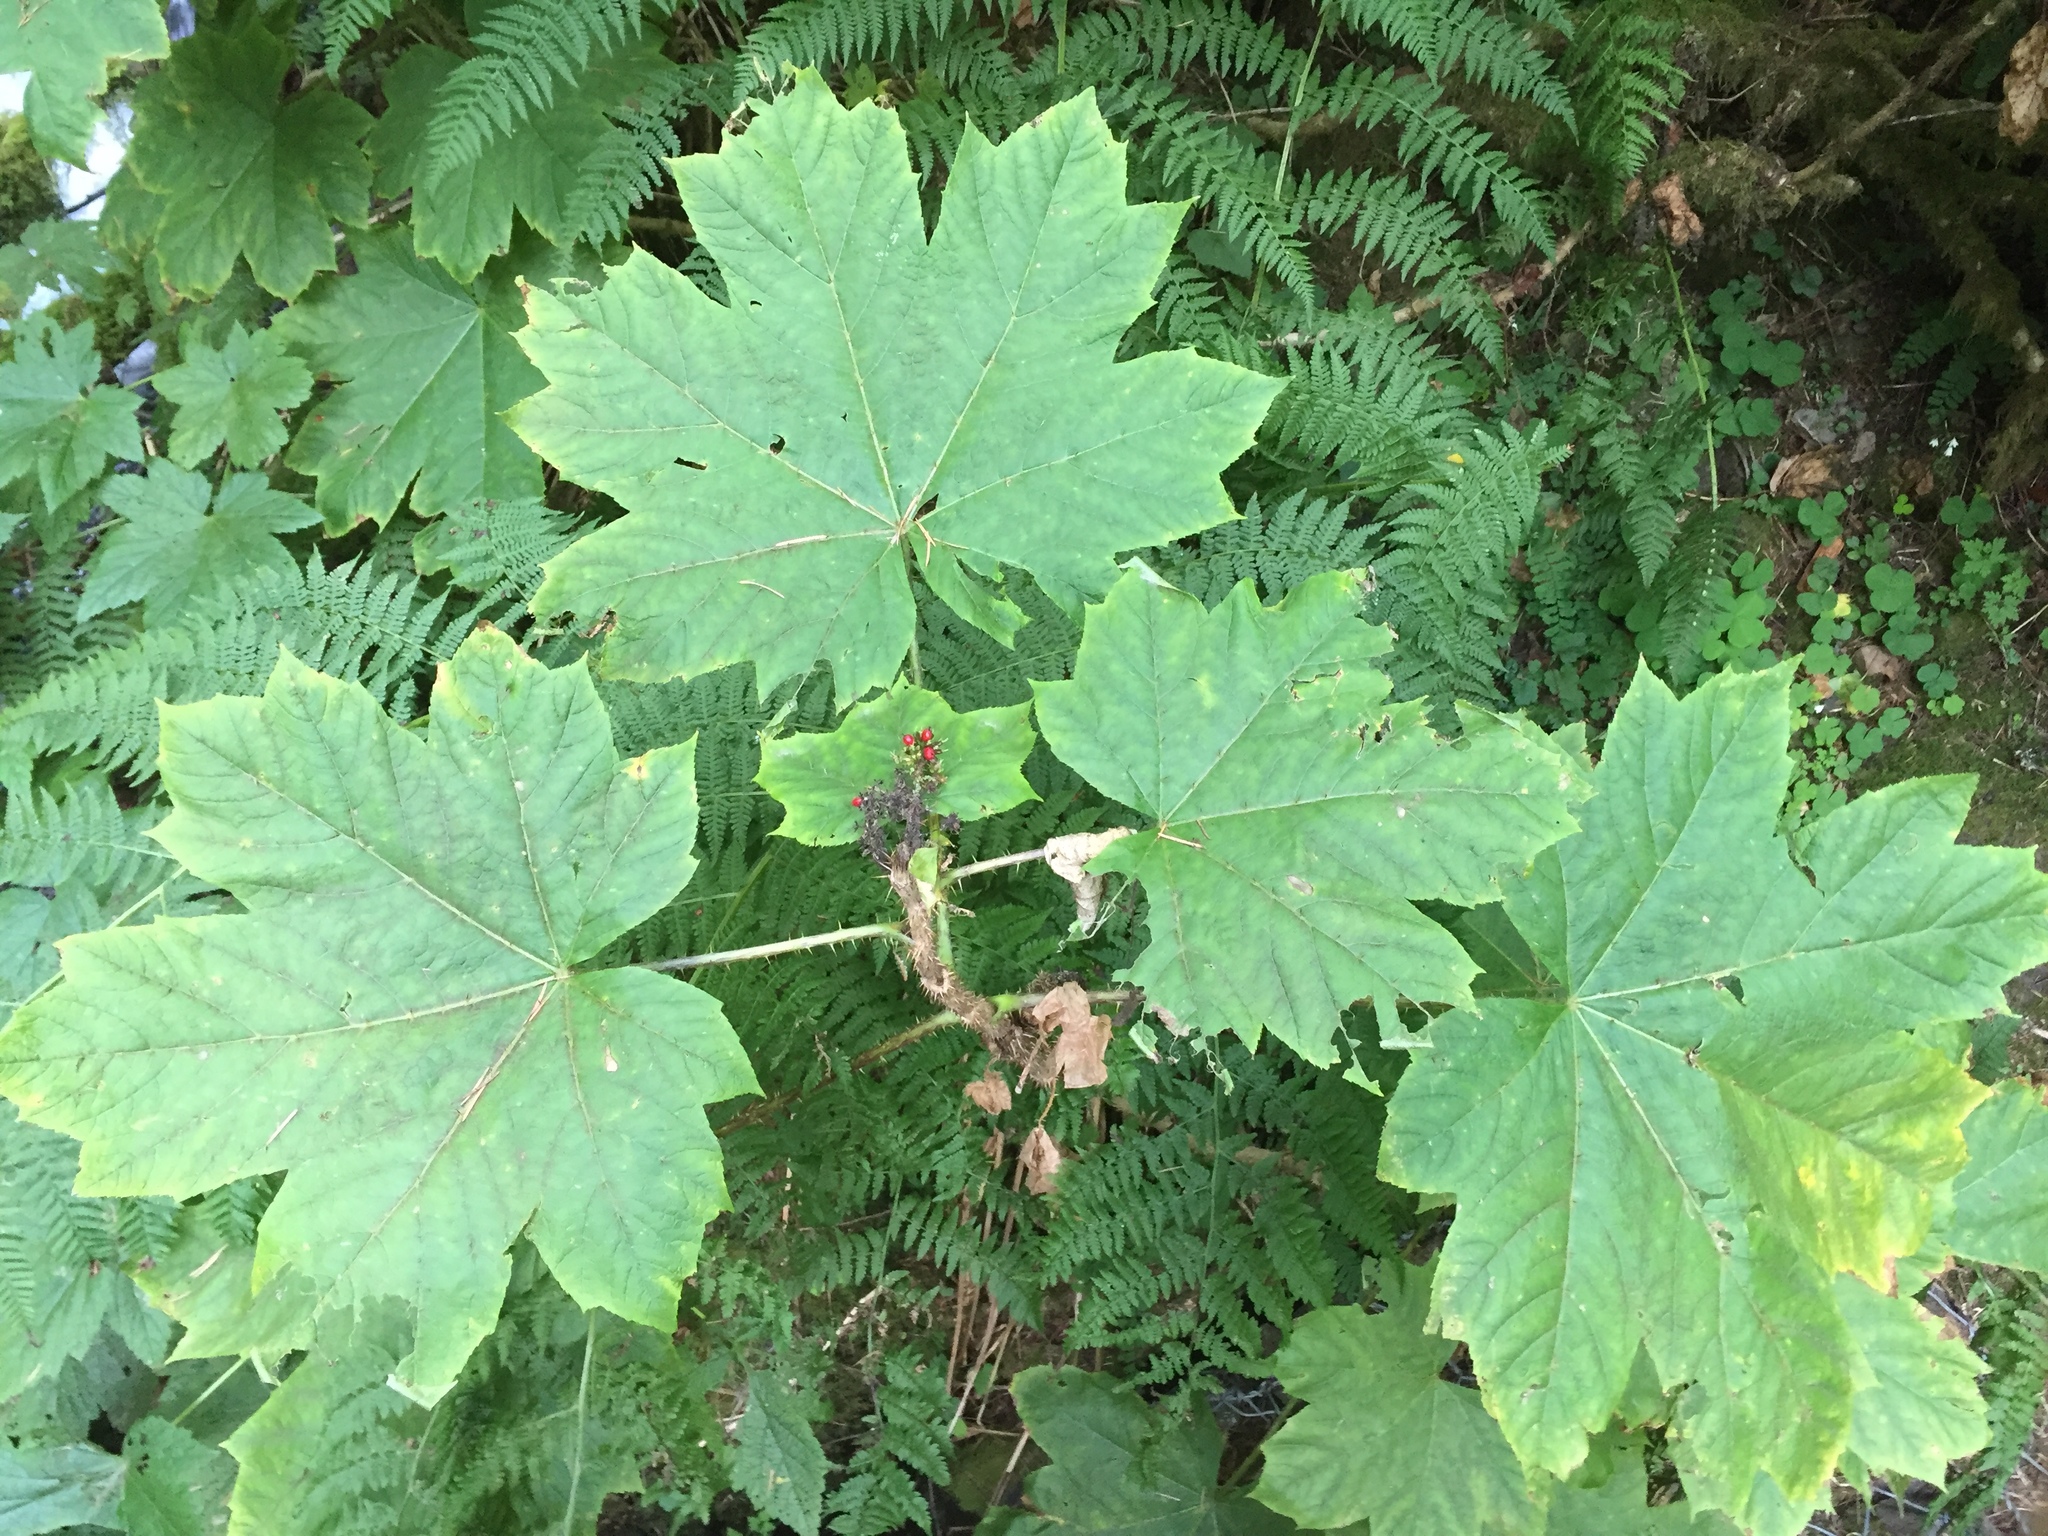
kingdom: Plantae
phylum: Tracheophyta
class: Magnoliopsida
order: Apiales
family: Araliaceae
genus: Oplopanax
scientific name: Oplopanax horridus
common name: Devil's walking-stick
